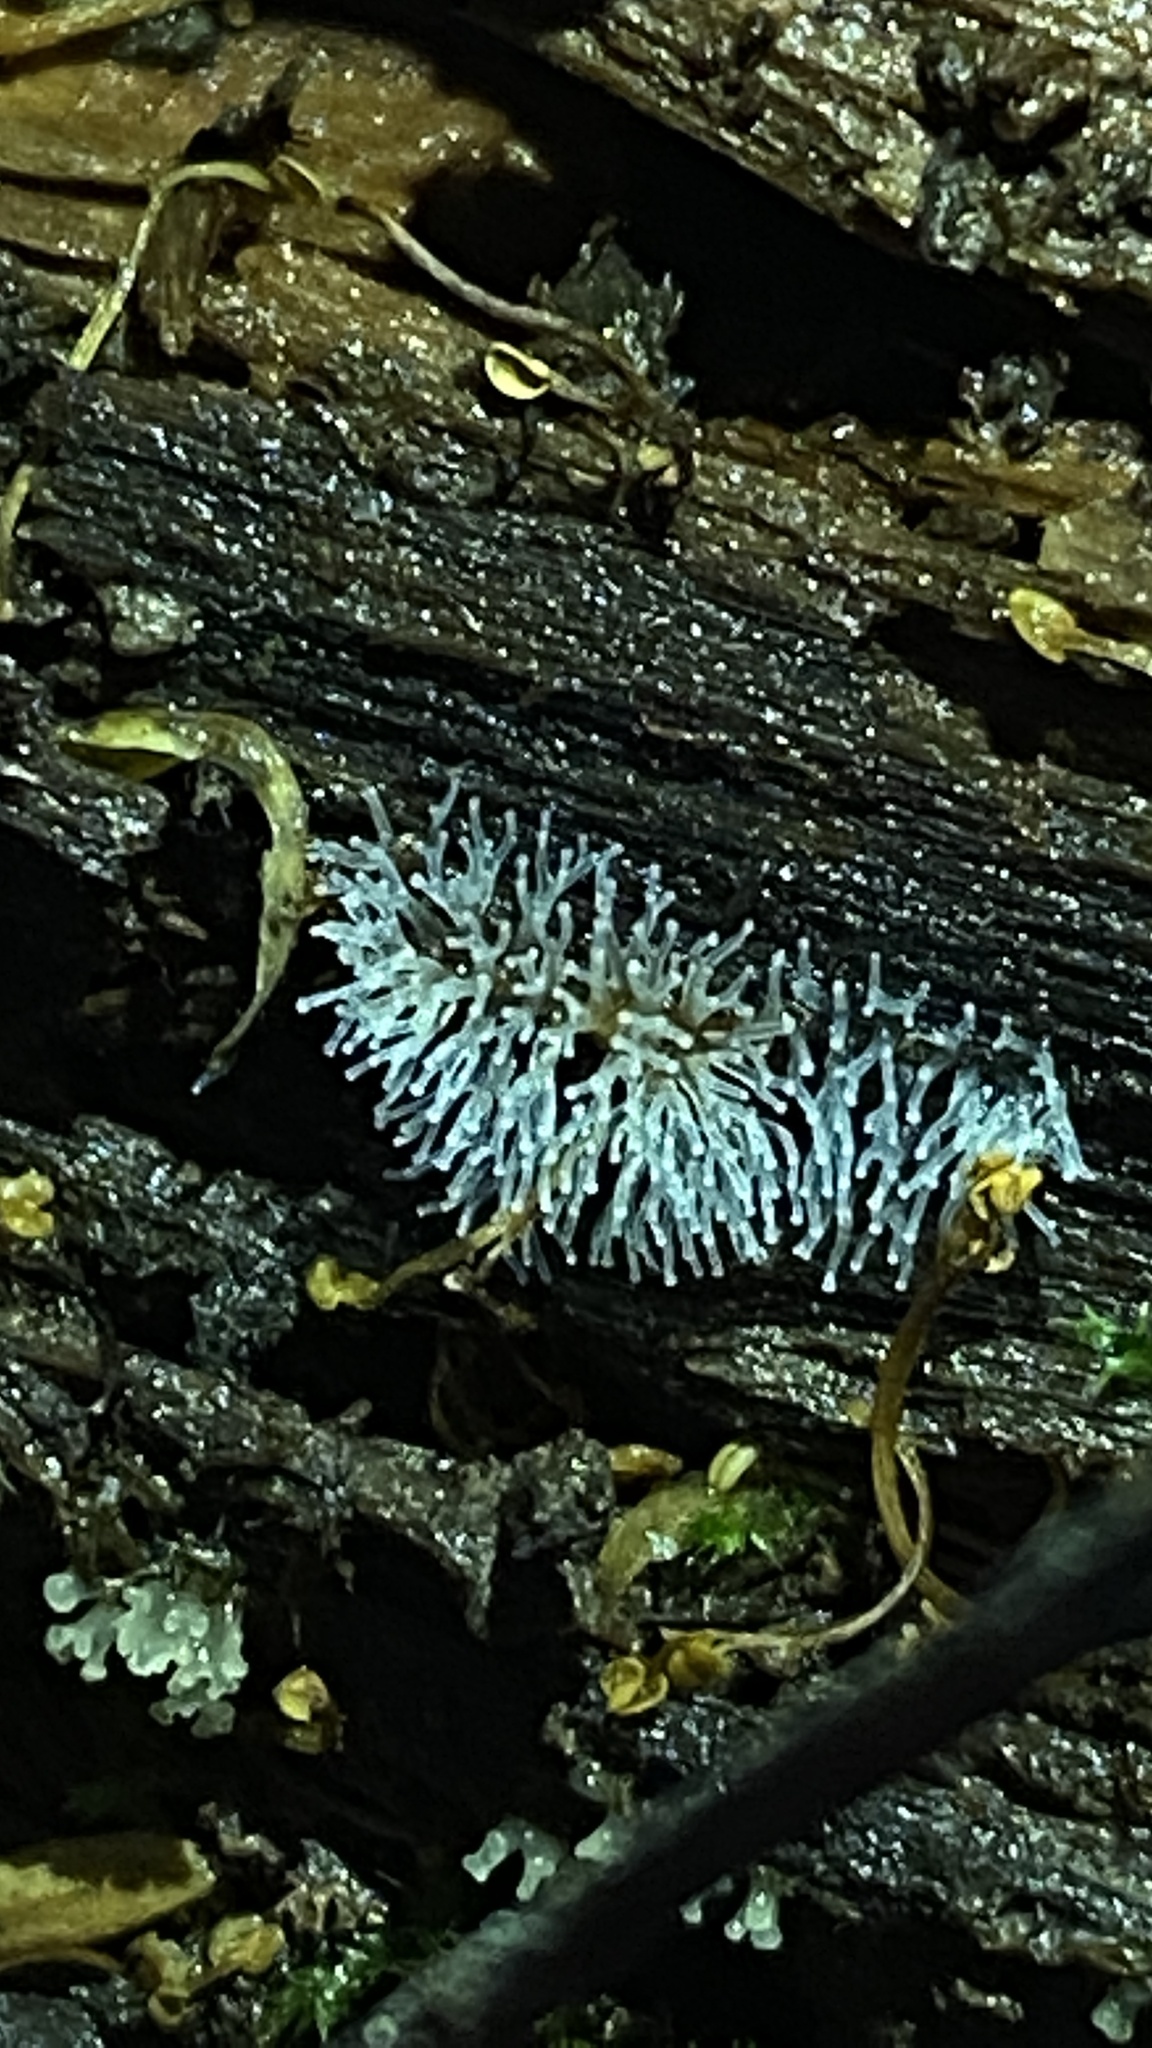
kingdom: Protozoa
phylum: Mycetozoa
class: Protosteliomycetes
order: Ceratiomyxales
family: Ceratiomyxaceae
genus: Ceratiomyxa
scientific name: Ceratiomyxa fruticulosa
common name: Honeycomb coral slime mold
